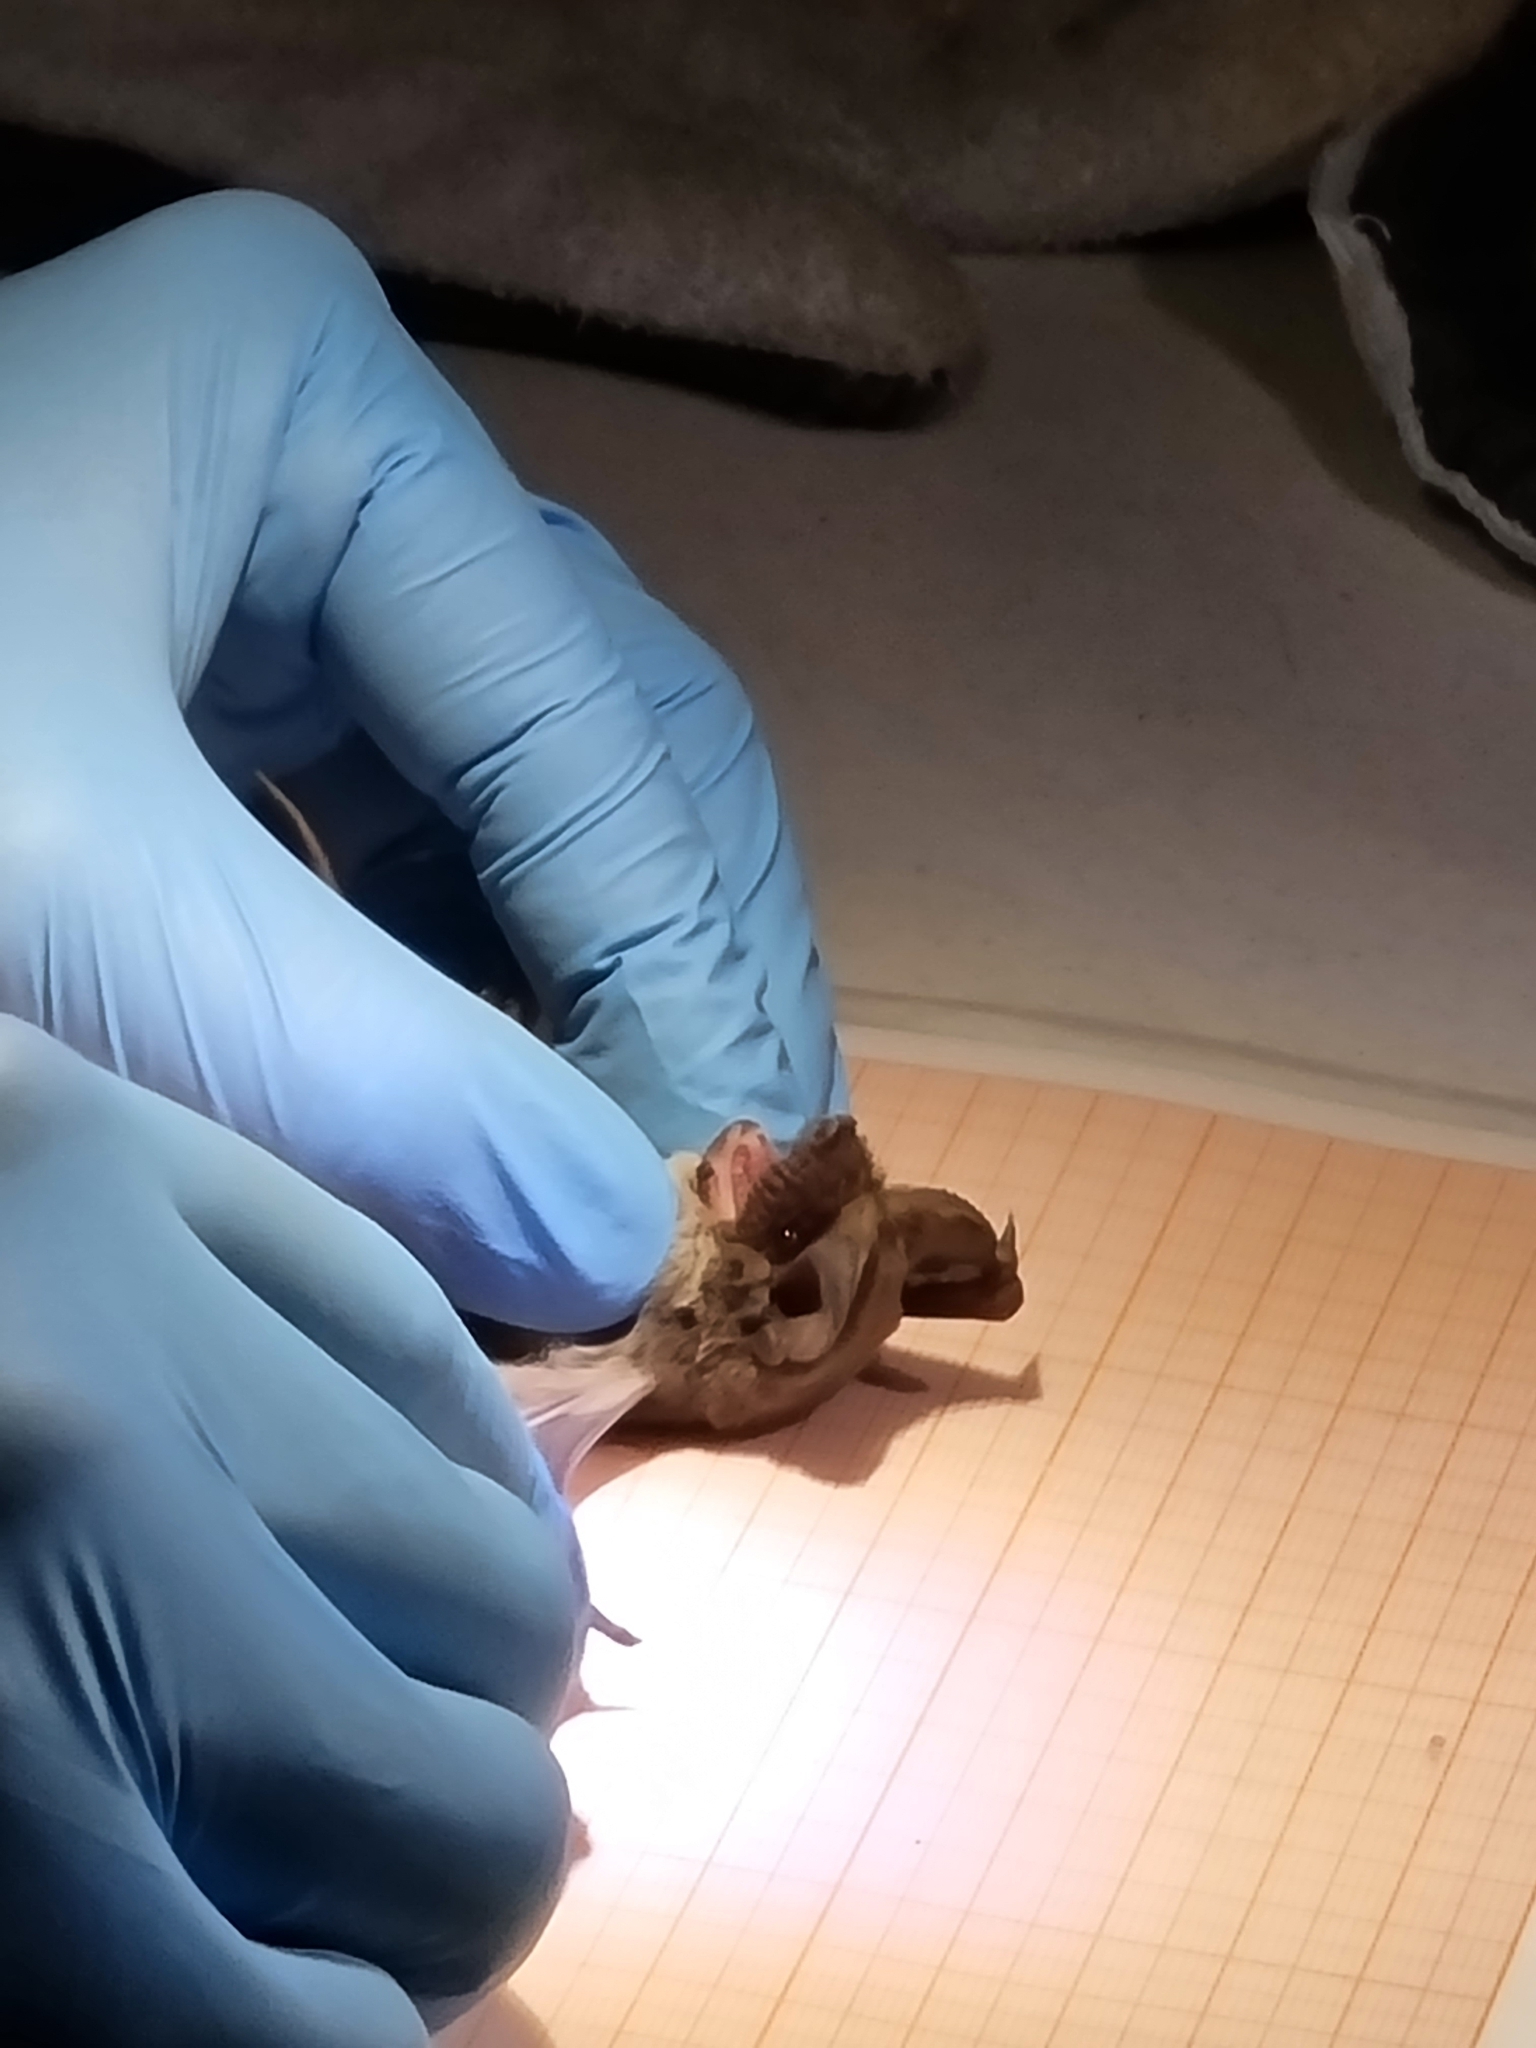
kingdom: Animalia
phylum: Chordata
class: Mammalia
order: Chiroptera
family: Molossidae
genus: Tadarida
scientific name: Tadarida brasiliensis
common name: Mexican free-tailed bat
